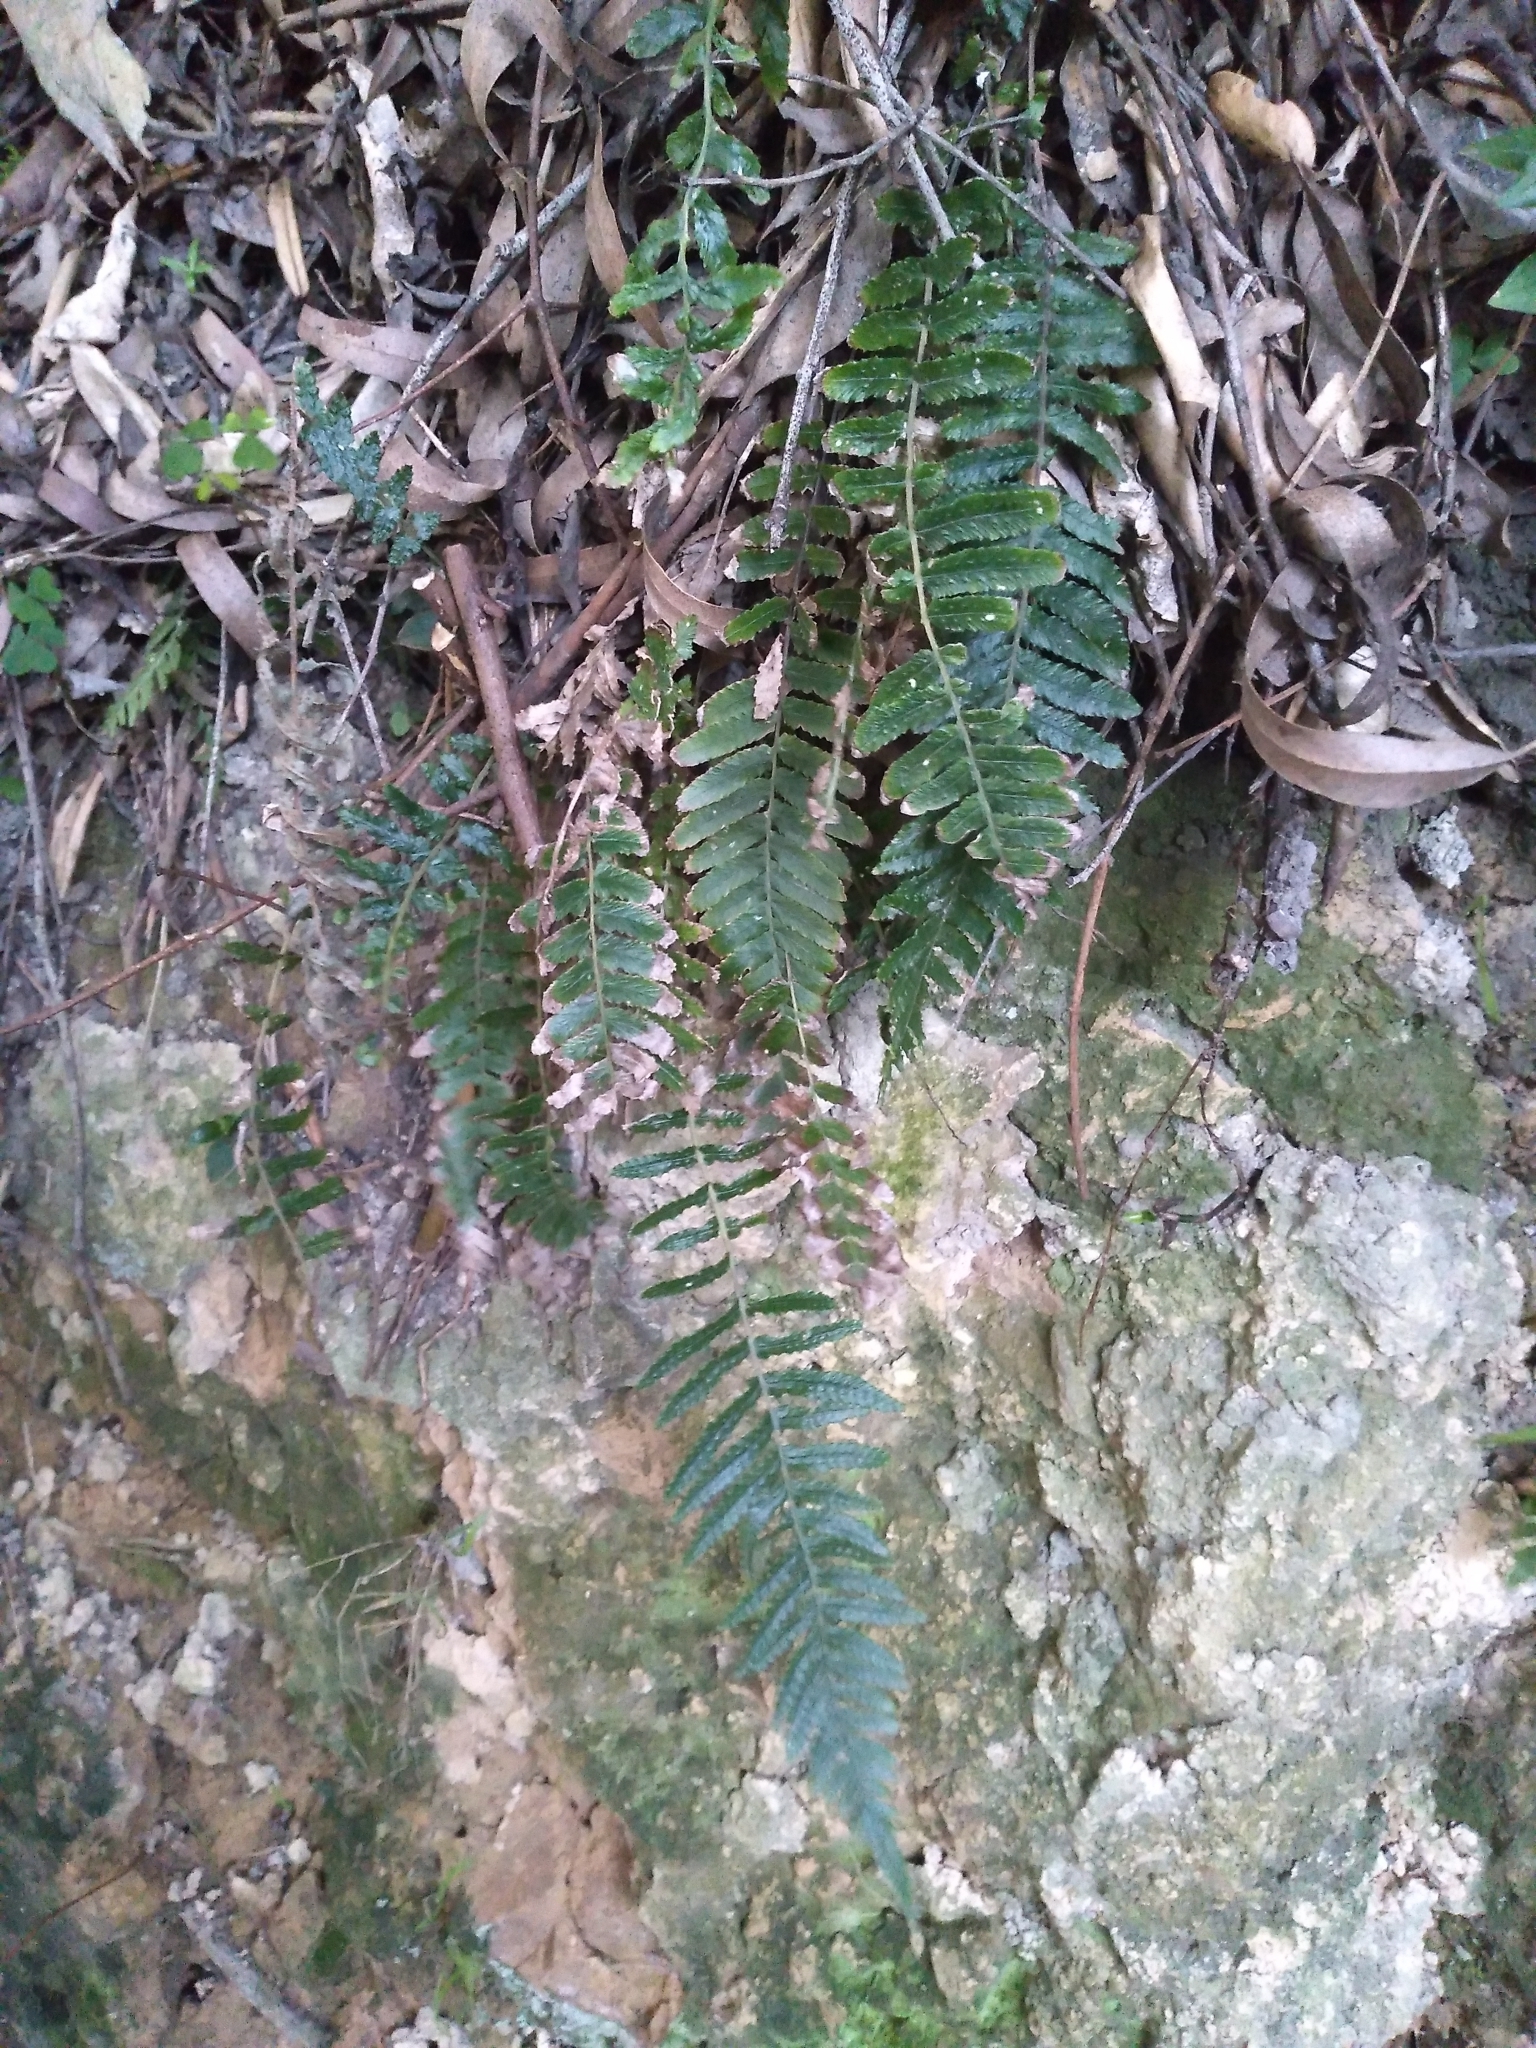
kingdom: Plantae
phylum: Tracheophyta
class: Polypodiopsida
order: Polypodiales
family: Blechnaceae
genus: Doodia
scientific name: Doodia australis
